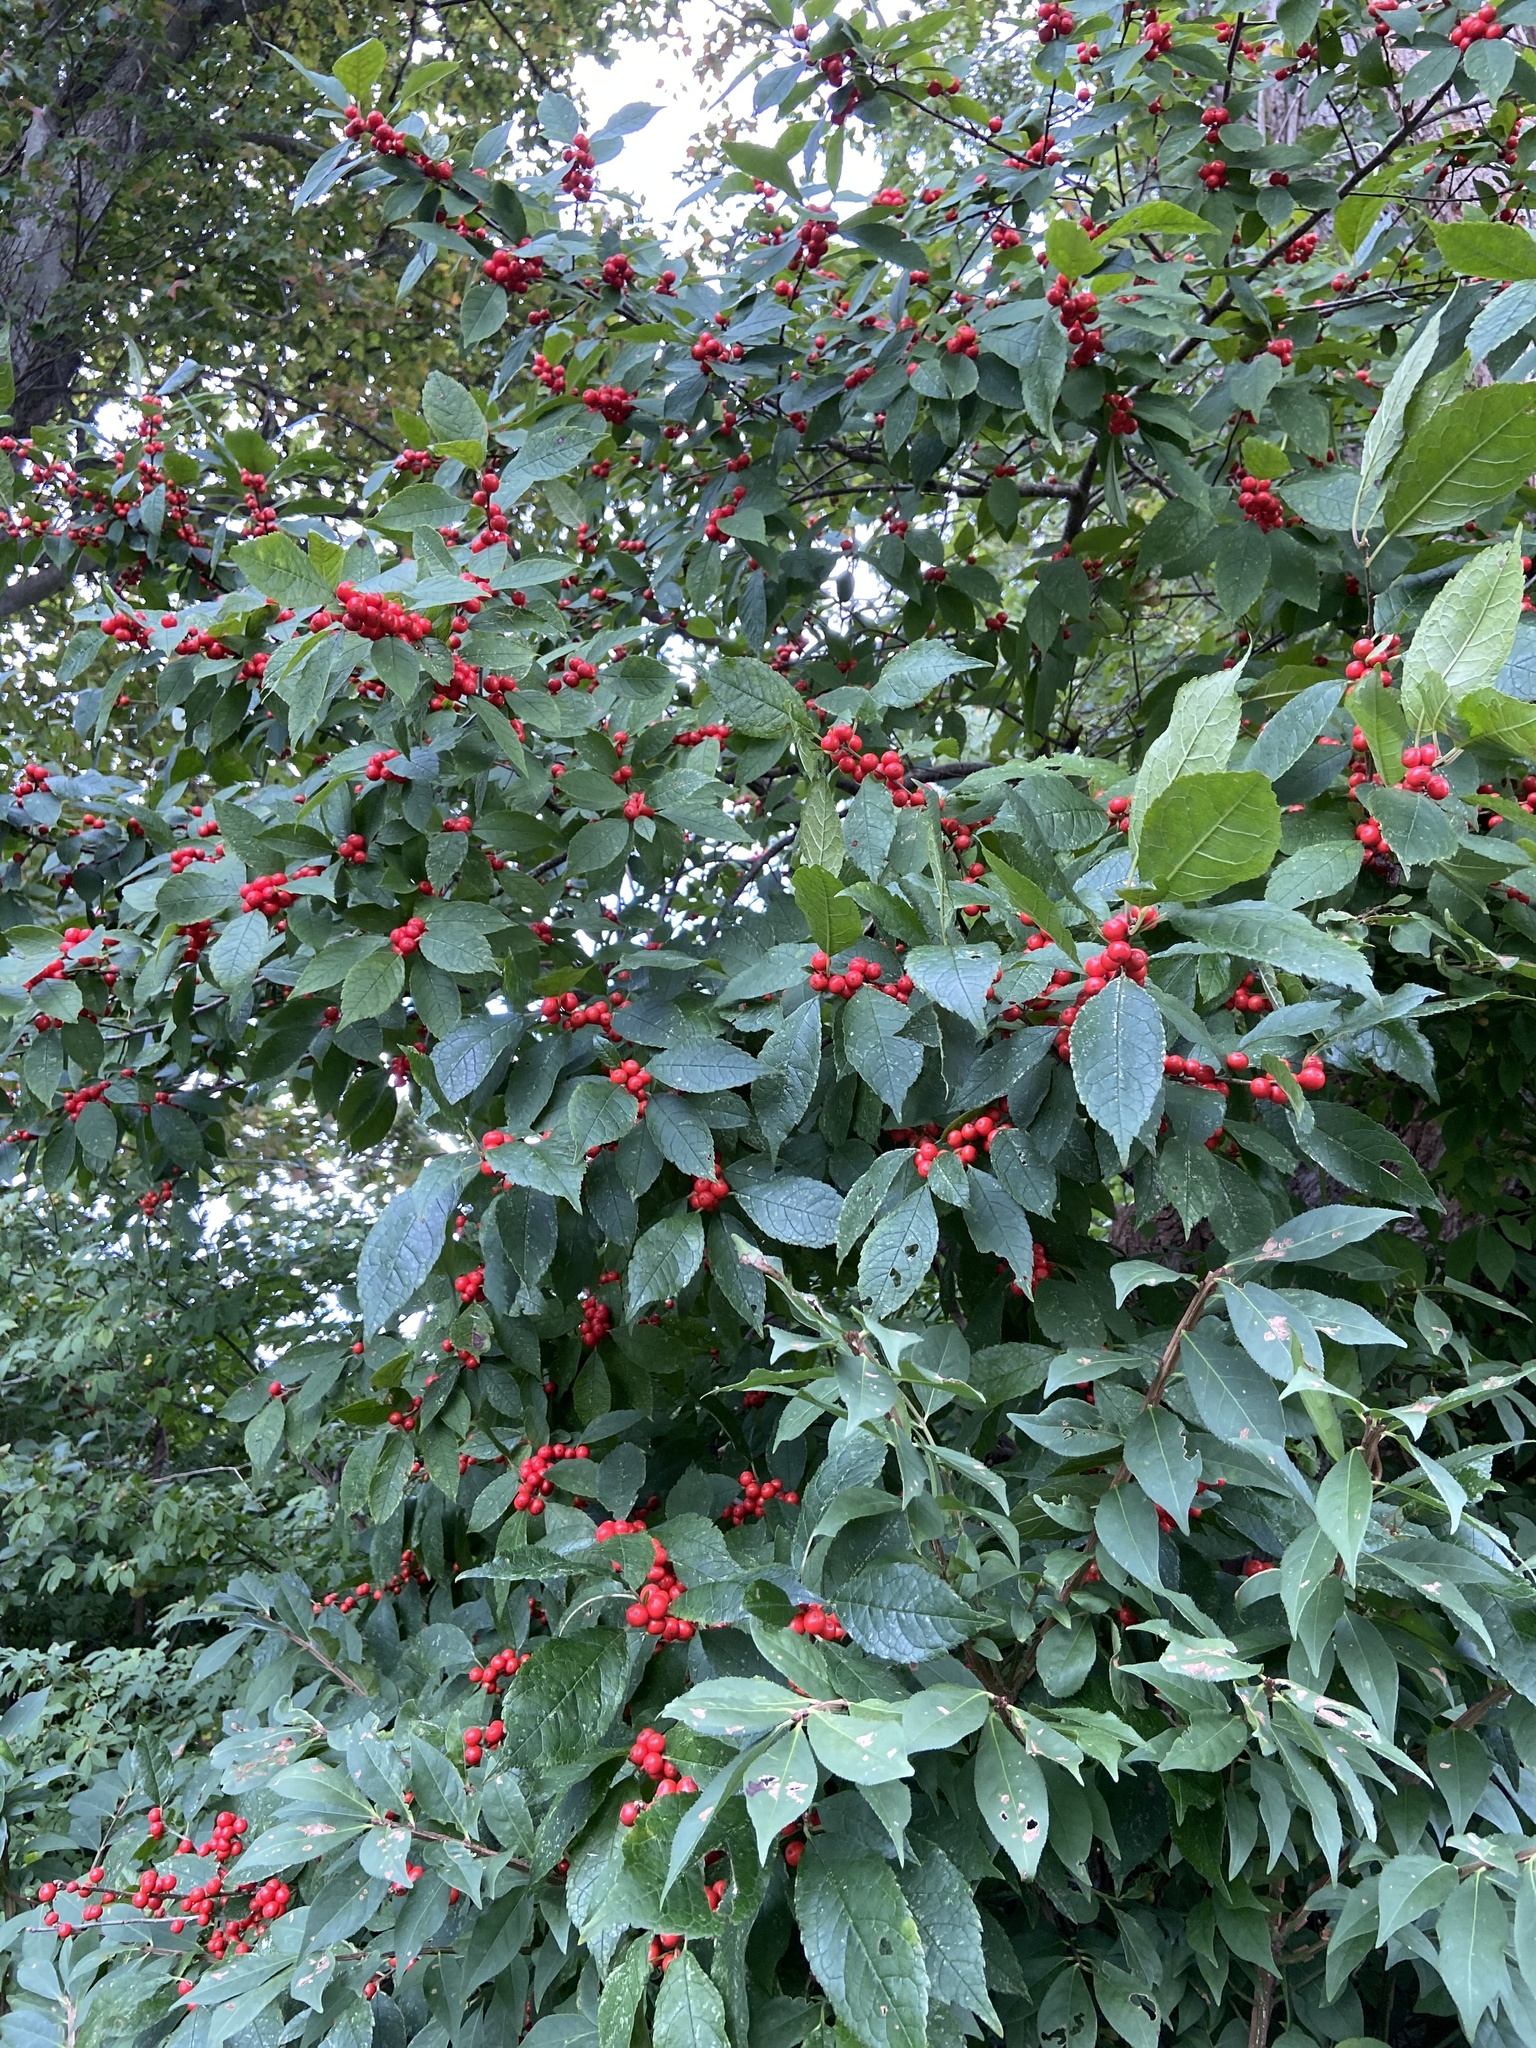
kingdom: Plantae
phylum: Tracheophyta
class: Magnoliopsida
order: Aquifoliales
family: Aquifoliaceae
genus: Ilex
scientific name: Ilex verticillata
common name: Virginia winterberry
